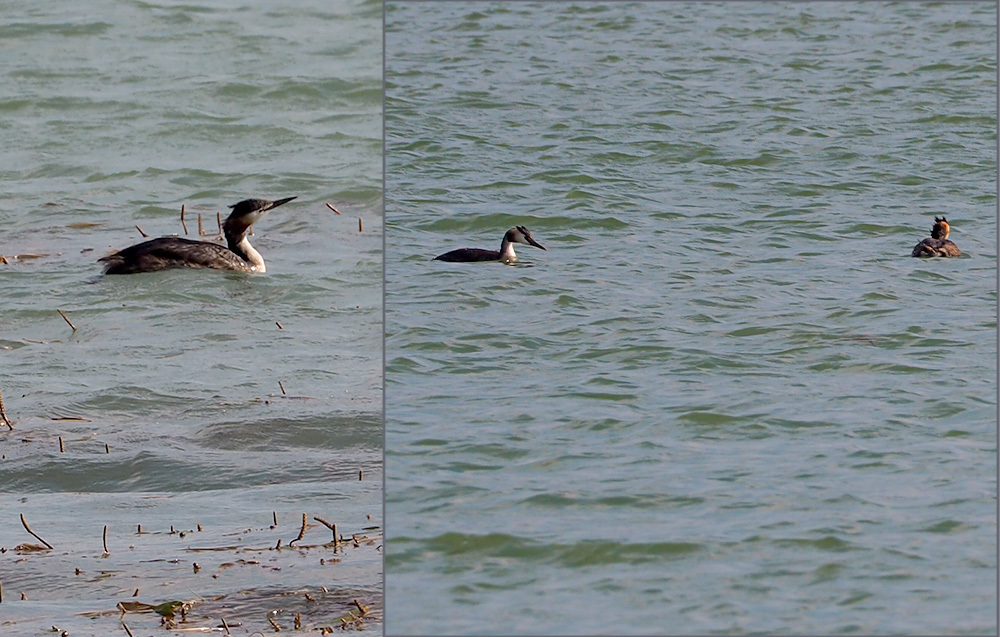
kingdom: Animalia
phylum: Chordata
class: Aves
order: Podicipediformes
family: Podicipedidae
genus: Podiceps
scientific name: Podiceps cristatus
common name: Great crested grebe
